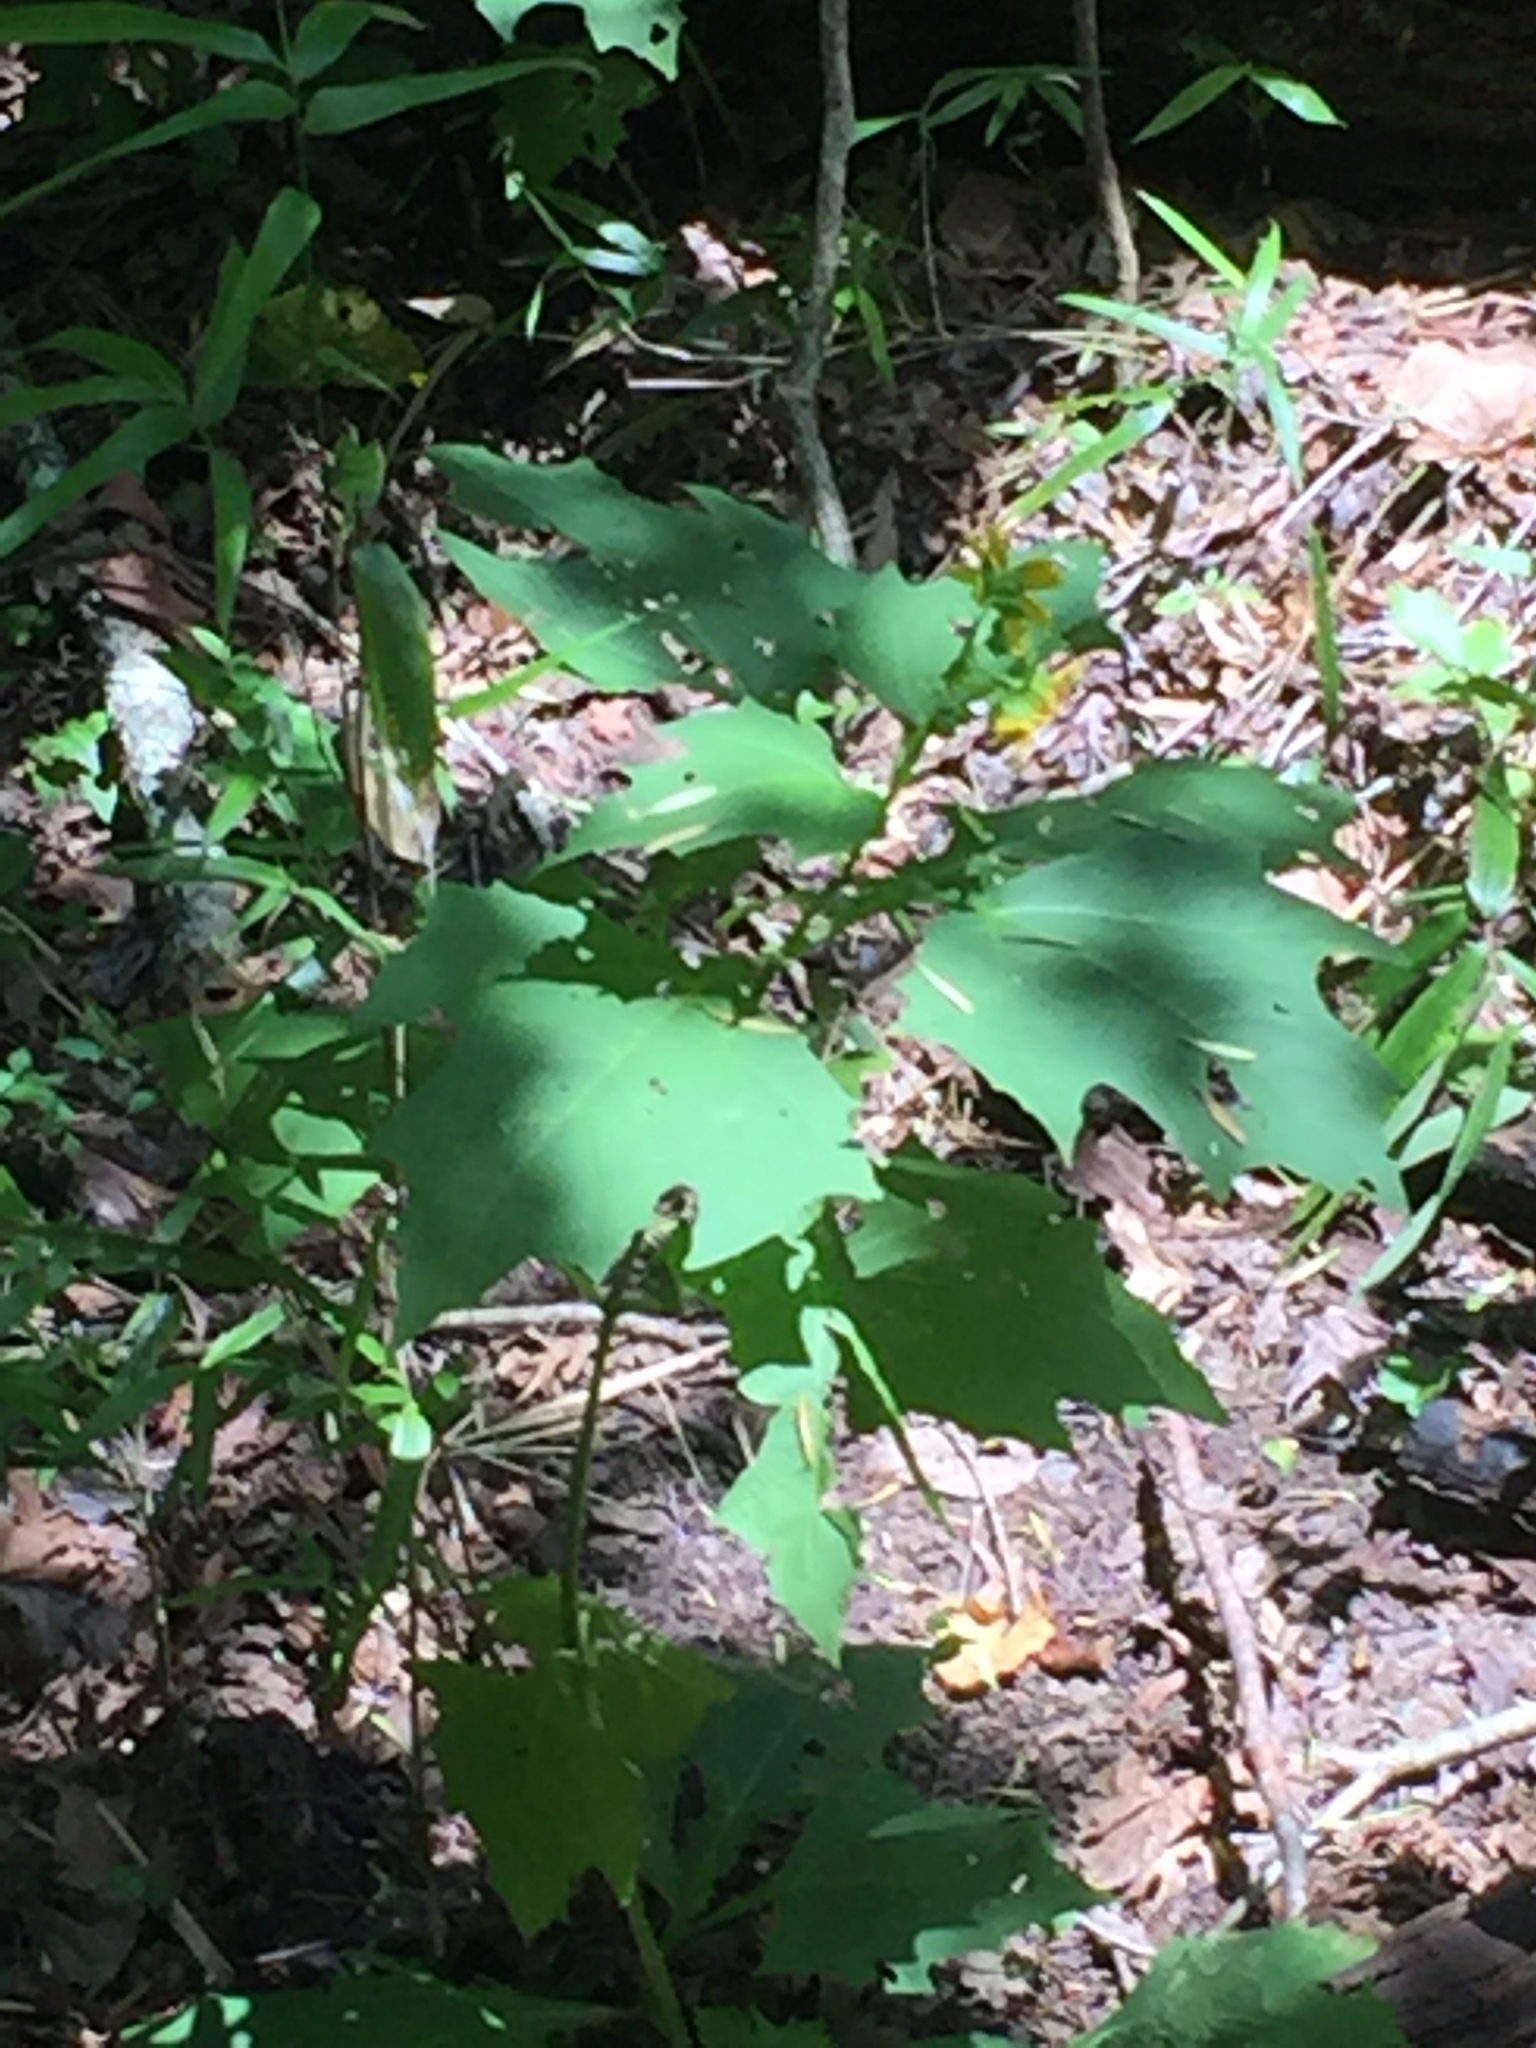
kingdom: Plantae
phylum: Tracheophyta
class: Magnoliopsida
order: Asterales
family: Asteraceae
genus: Smallanthus
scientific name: Smallanthus uvedalia
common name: Bear's-foot
